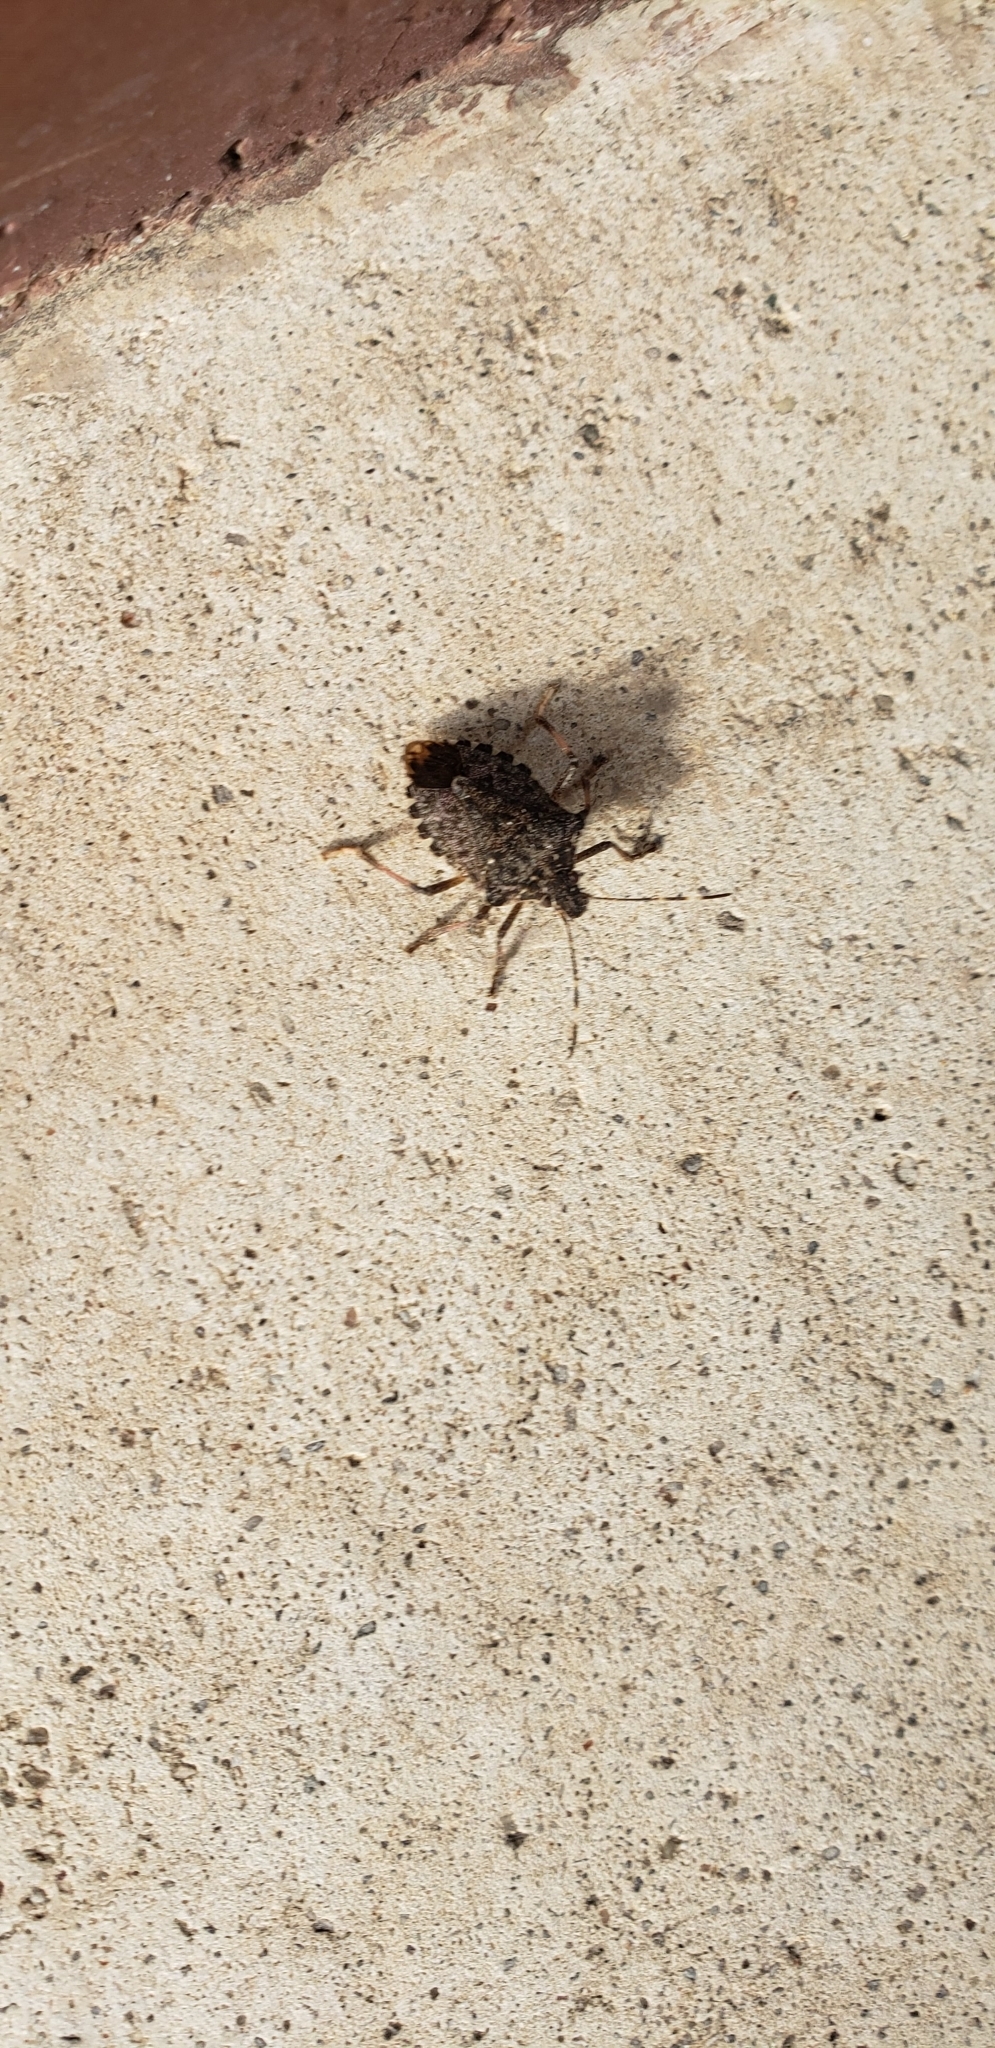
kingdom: Animalia
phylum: Arthropoda
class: Insecta
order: Hemiptera
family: Pentatomidae
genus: Halyomorpha
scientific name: Halyomorpha halys
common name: Brown marmorated stink bug
